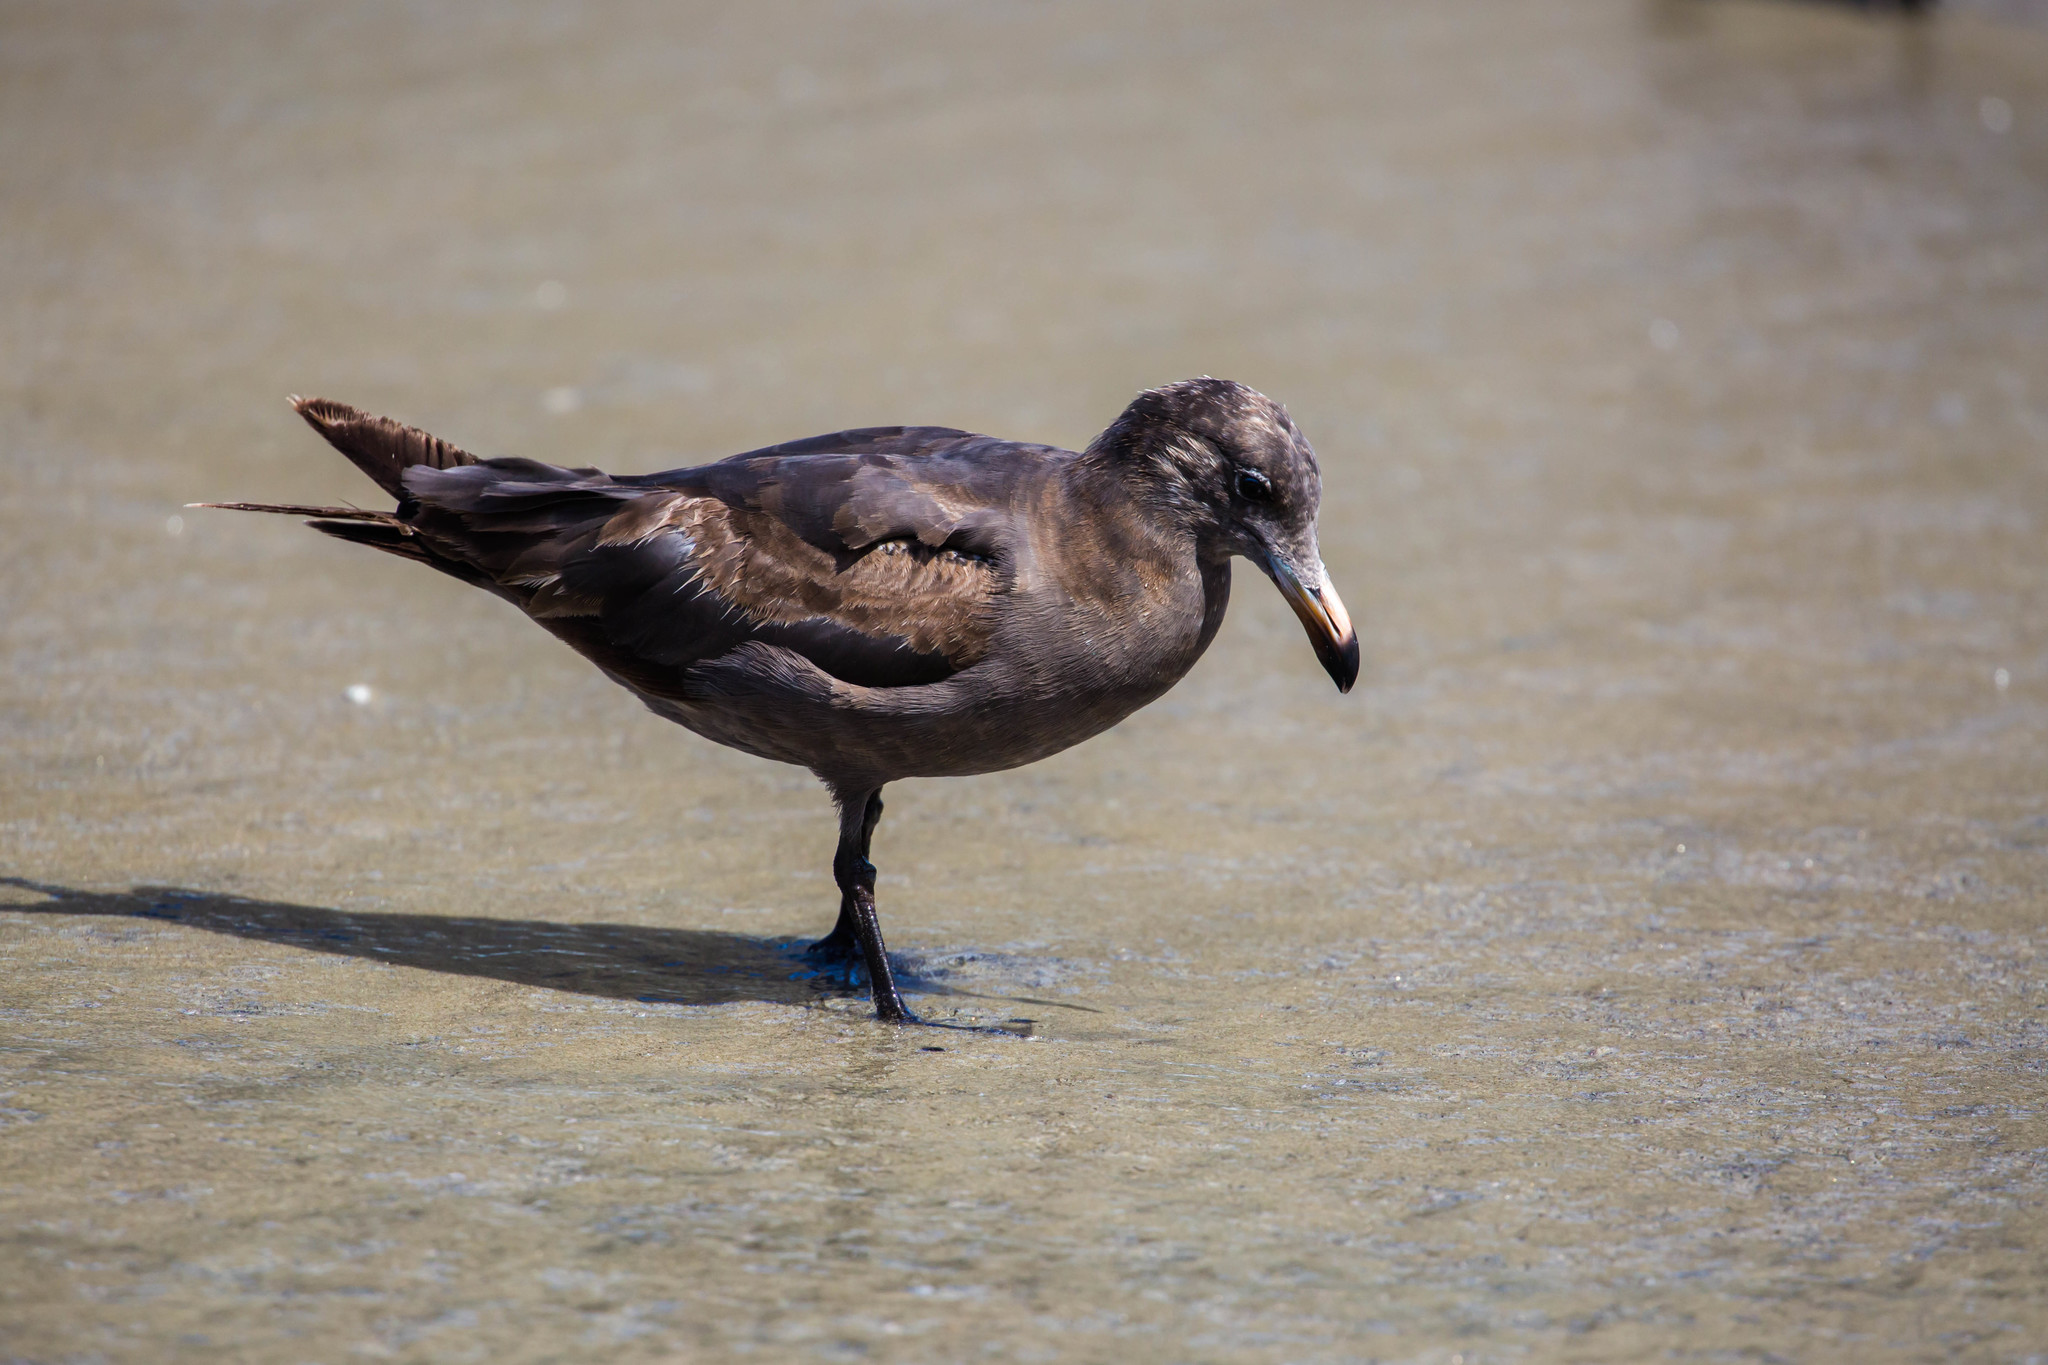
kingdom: Animalia
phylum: Chordata
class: Aves
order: Charadriiformes
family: Laridae
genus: Larus
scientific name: Larus heermanni
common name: Heermann's gull
